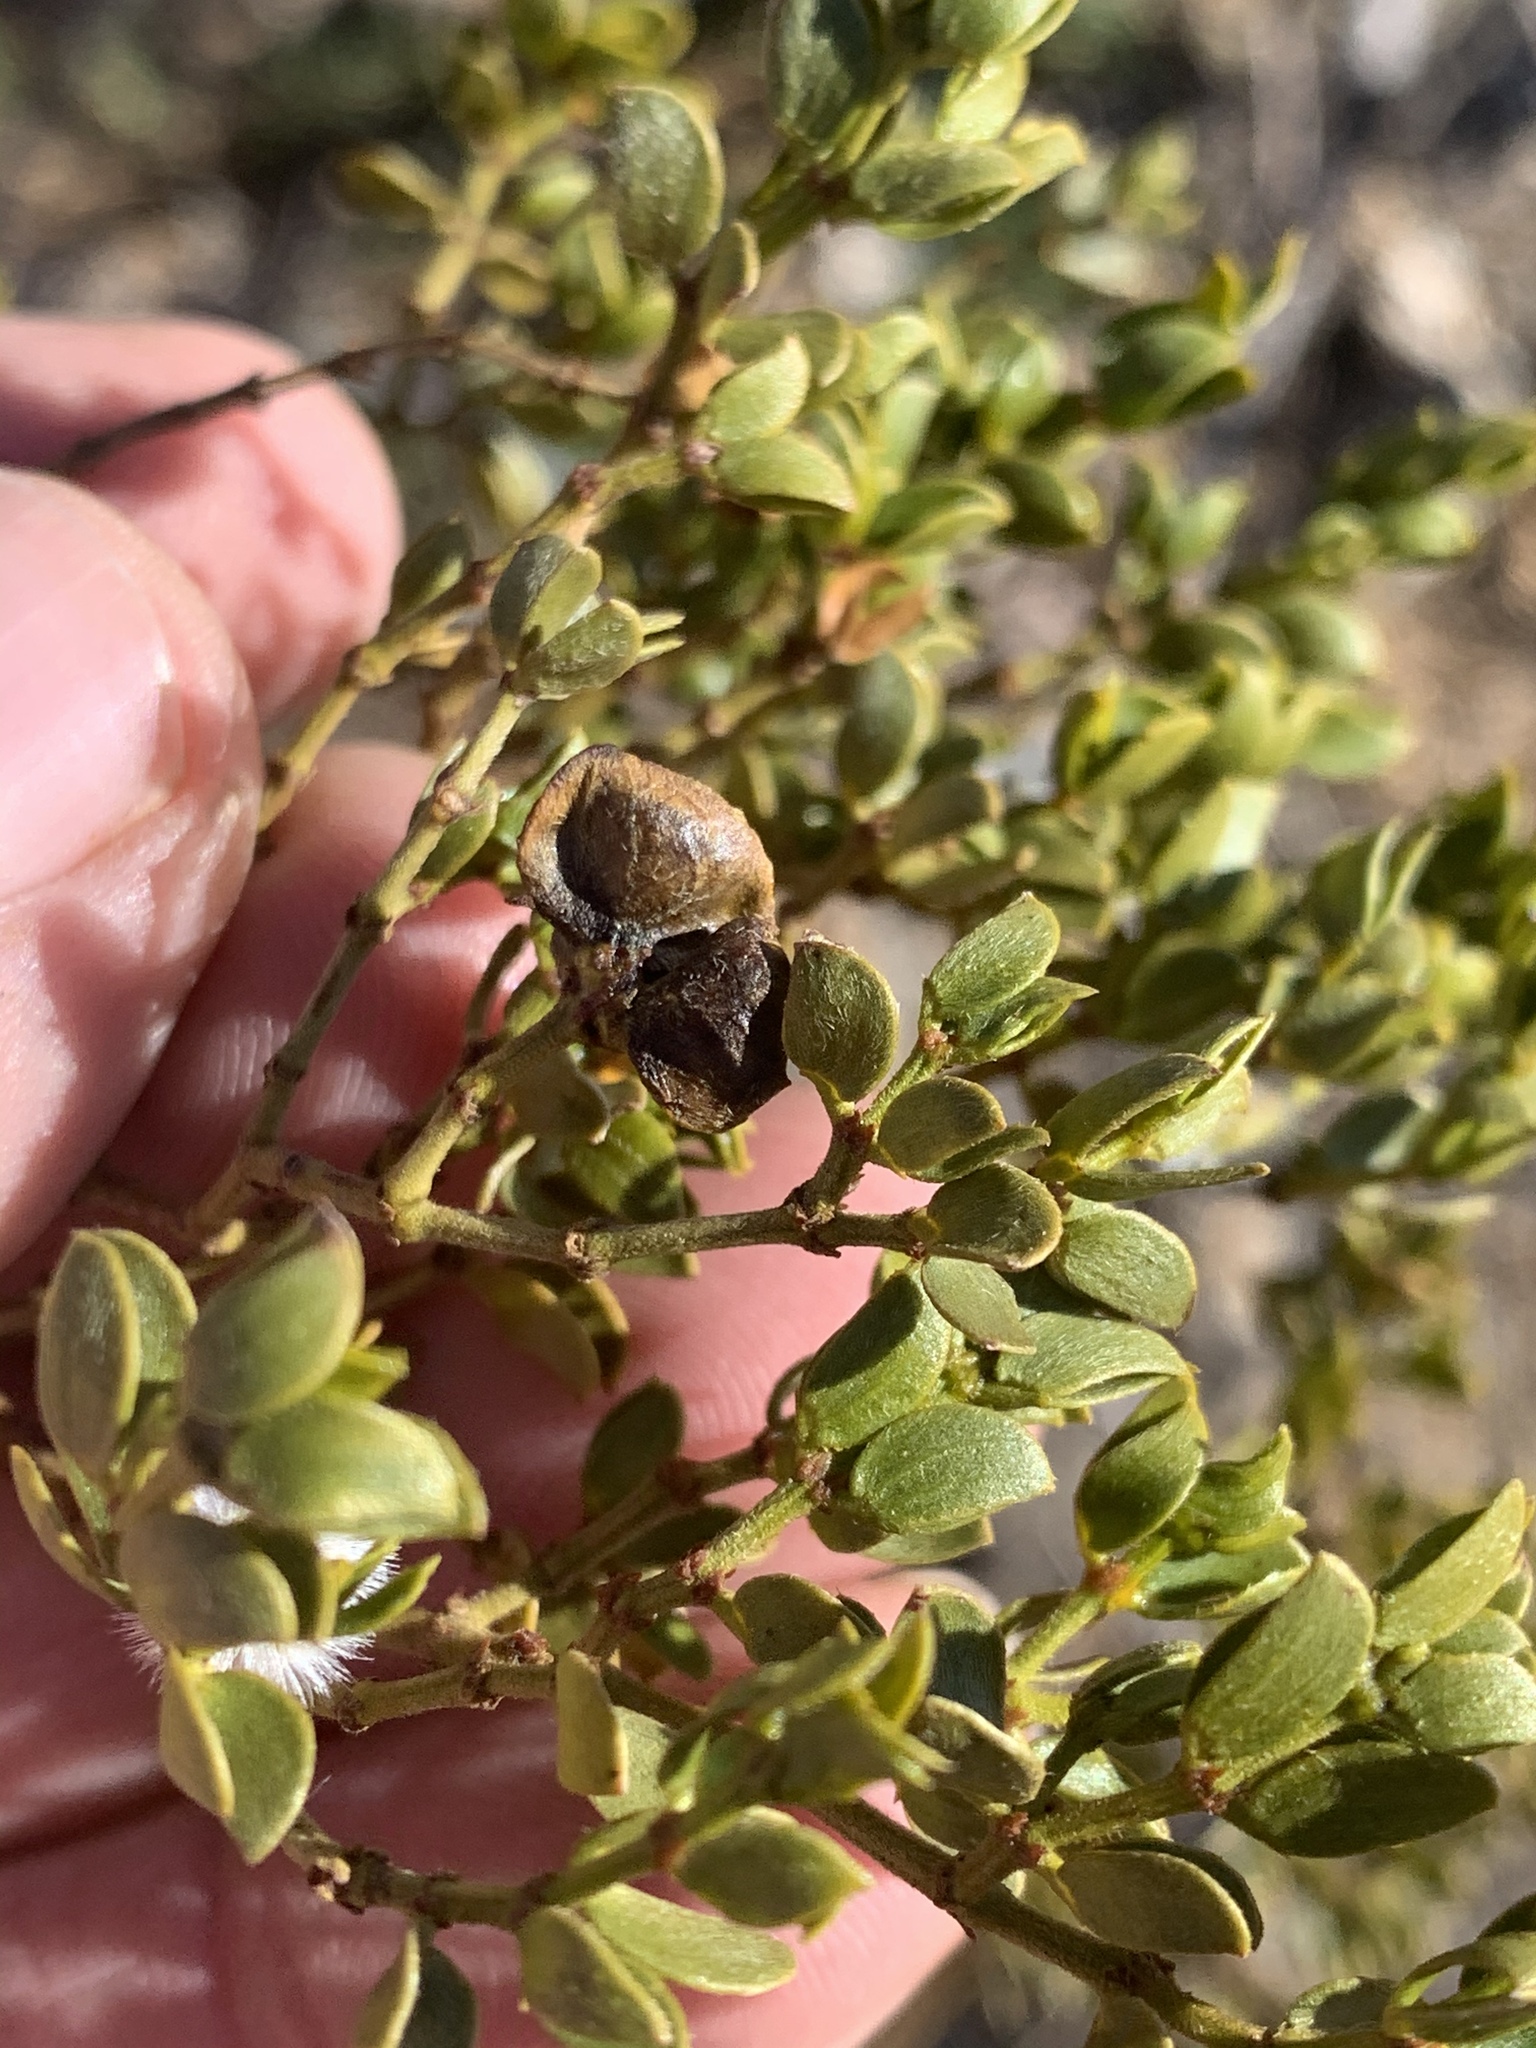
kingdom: Animalia
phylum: Arthropoda
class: Insecta
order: Diptera
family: Cecidomyiidae
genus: Contarinia
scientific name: Contarinia
